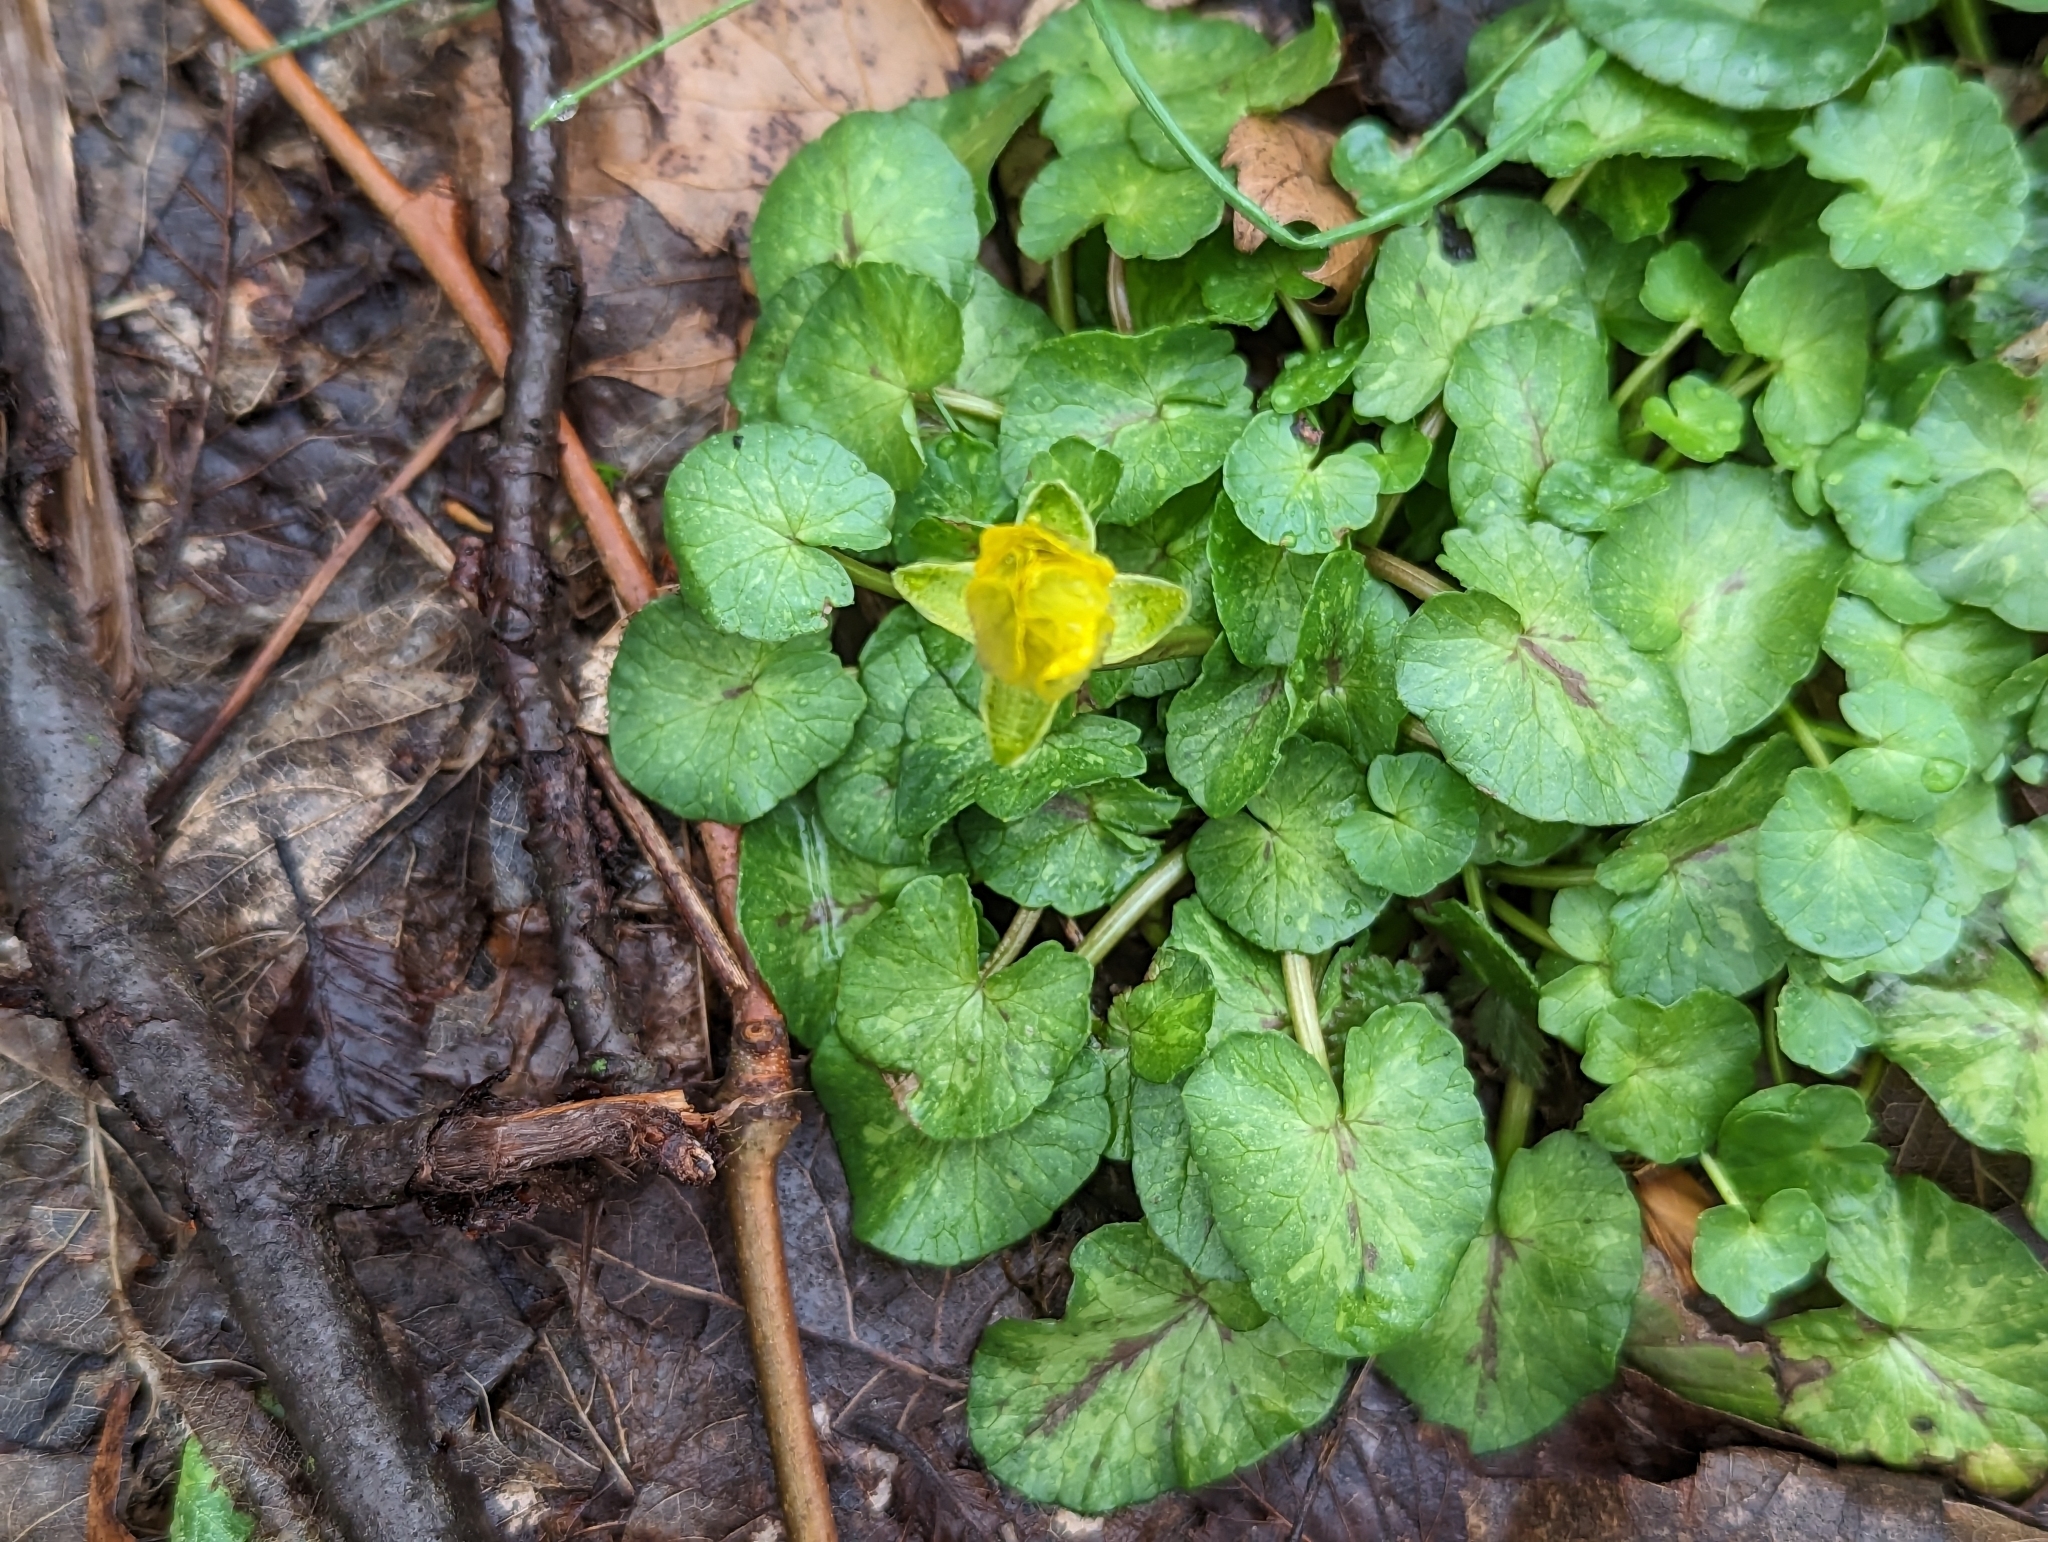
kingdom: Plantae
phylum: Tracheophyta
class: Magnoliopsida
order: Ranunculales
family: Ranunculaceae
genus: Ficaria
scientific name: Ficaria verna
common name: Lesser celandine
